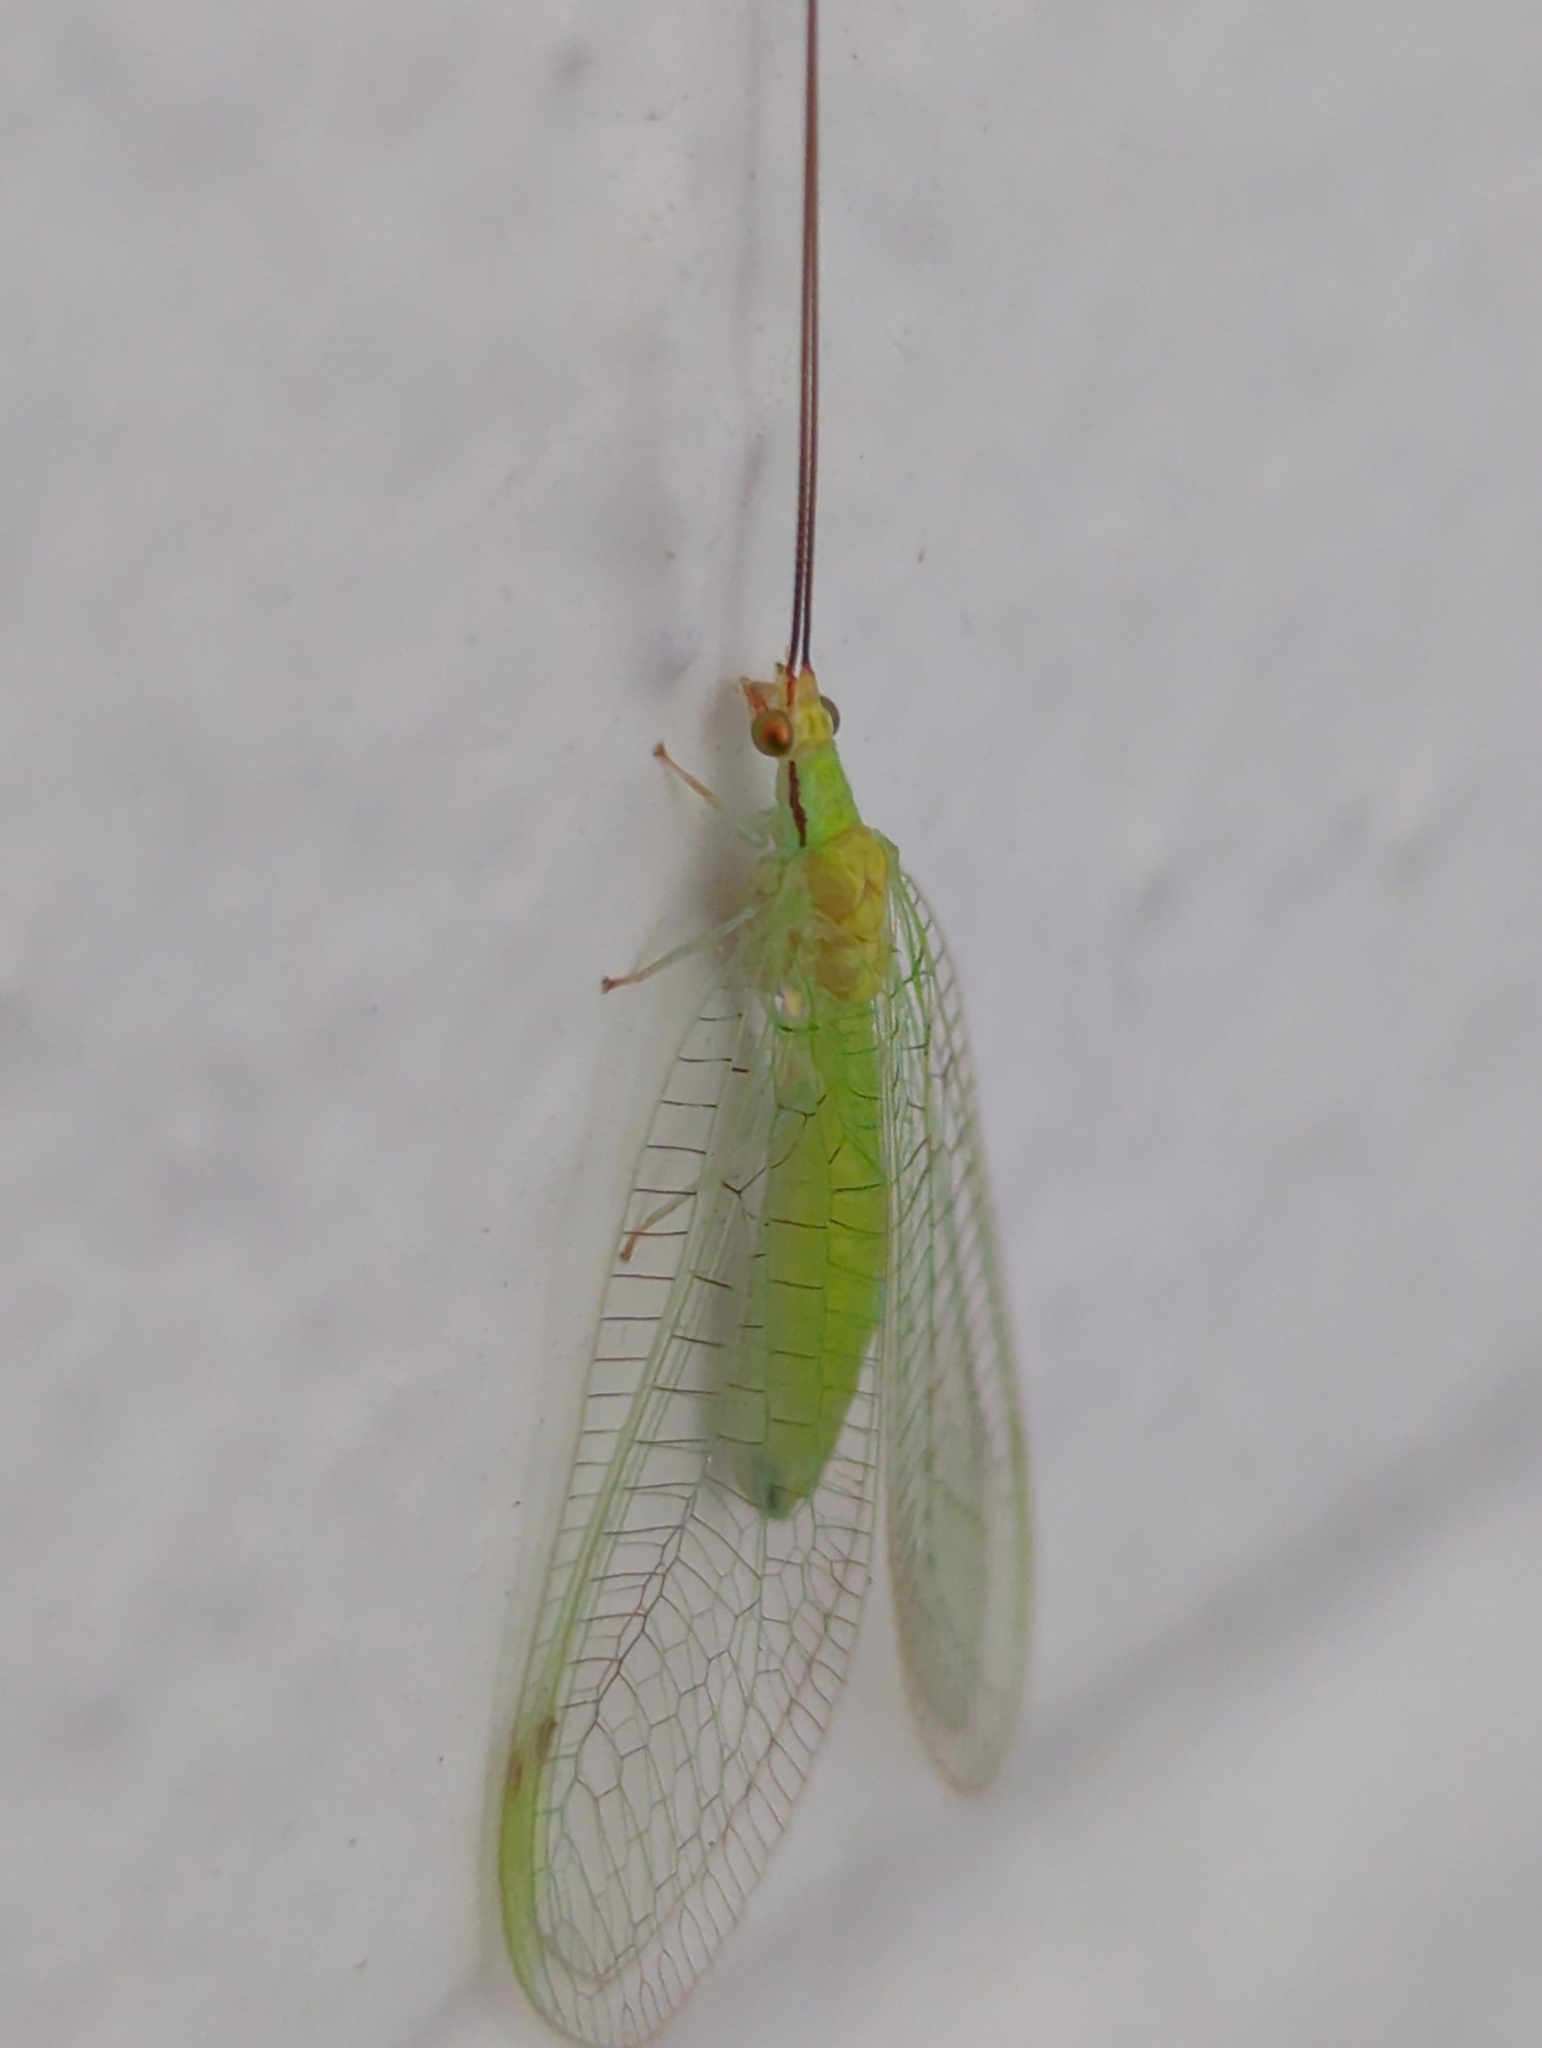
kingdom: Animalia
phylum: Arthropoda
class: Insecta
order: Neuroptera
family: Chrysopidae
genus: Leucochrysa
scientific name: Leucochrysa pavida
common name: Lichen-carrying green lacewing
